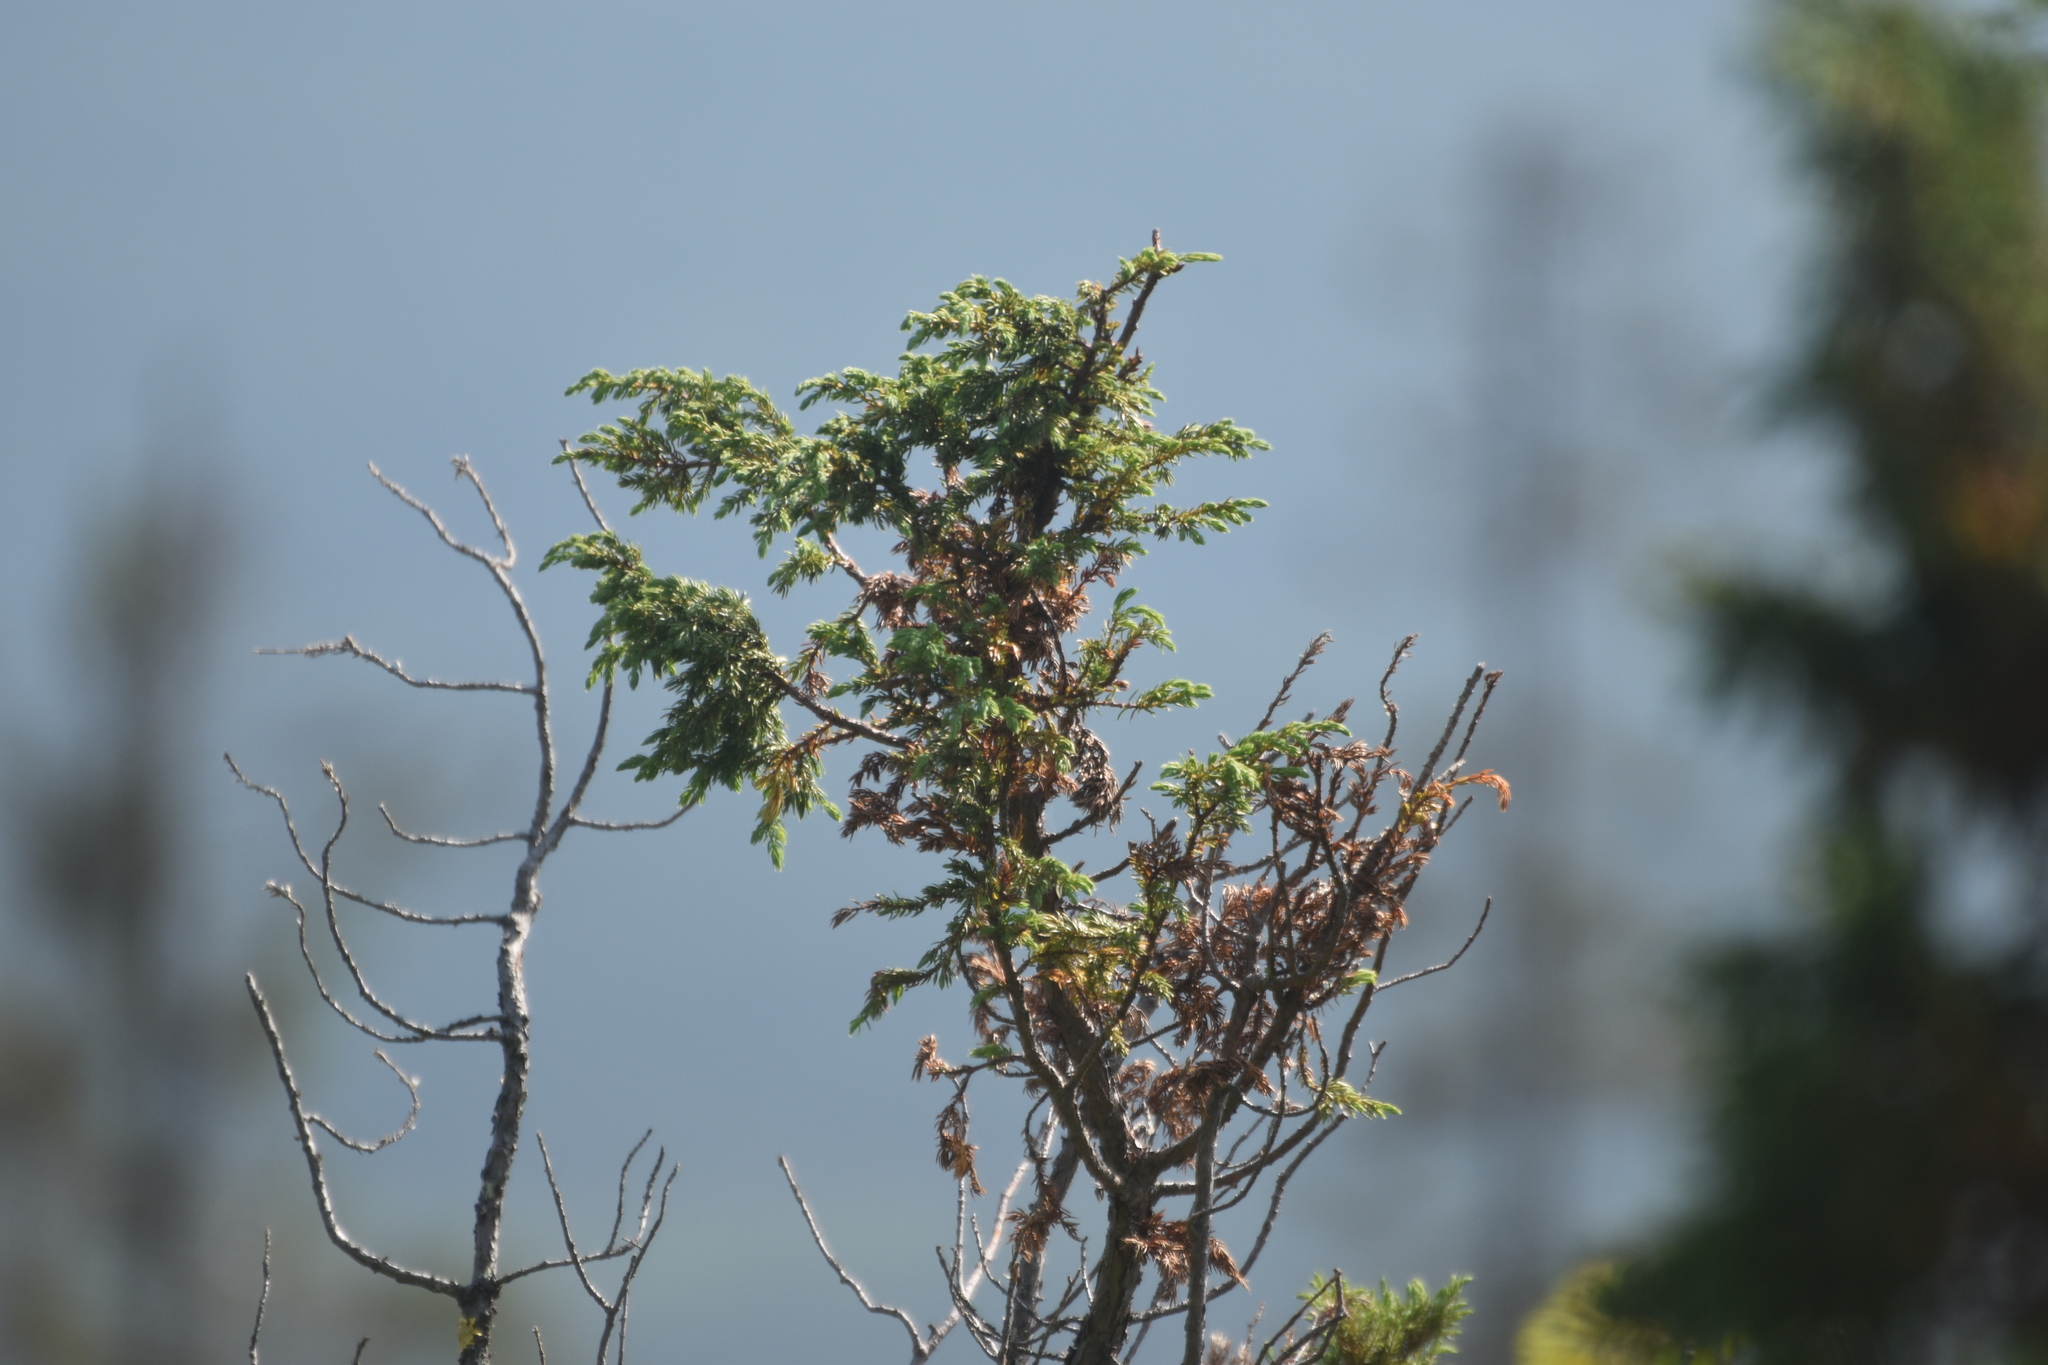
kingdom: Plantae
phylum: Tracheophyta
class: Pinopsida
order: Pinales
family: Cupressaceae
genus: Juniperus
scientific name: Juniperus communis
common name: Common juniper
